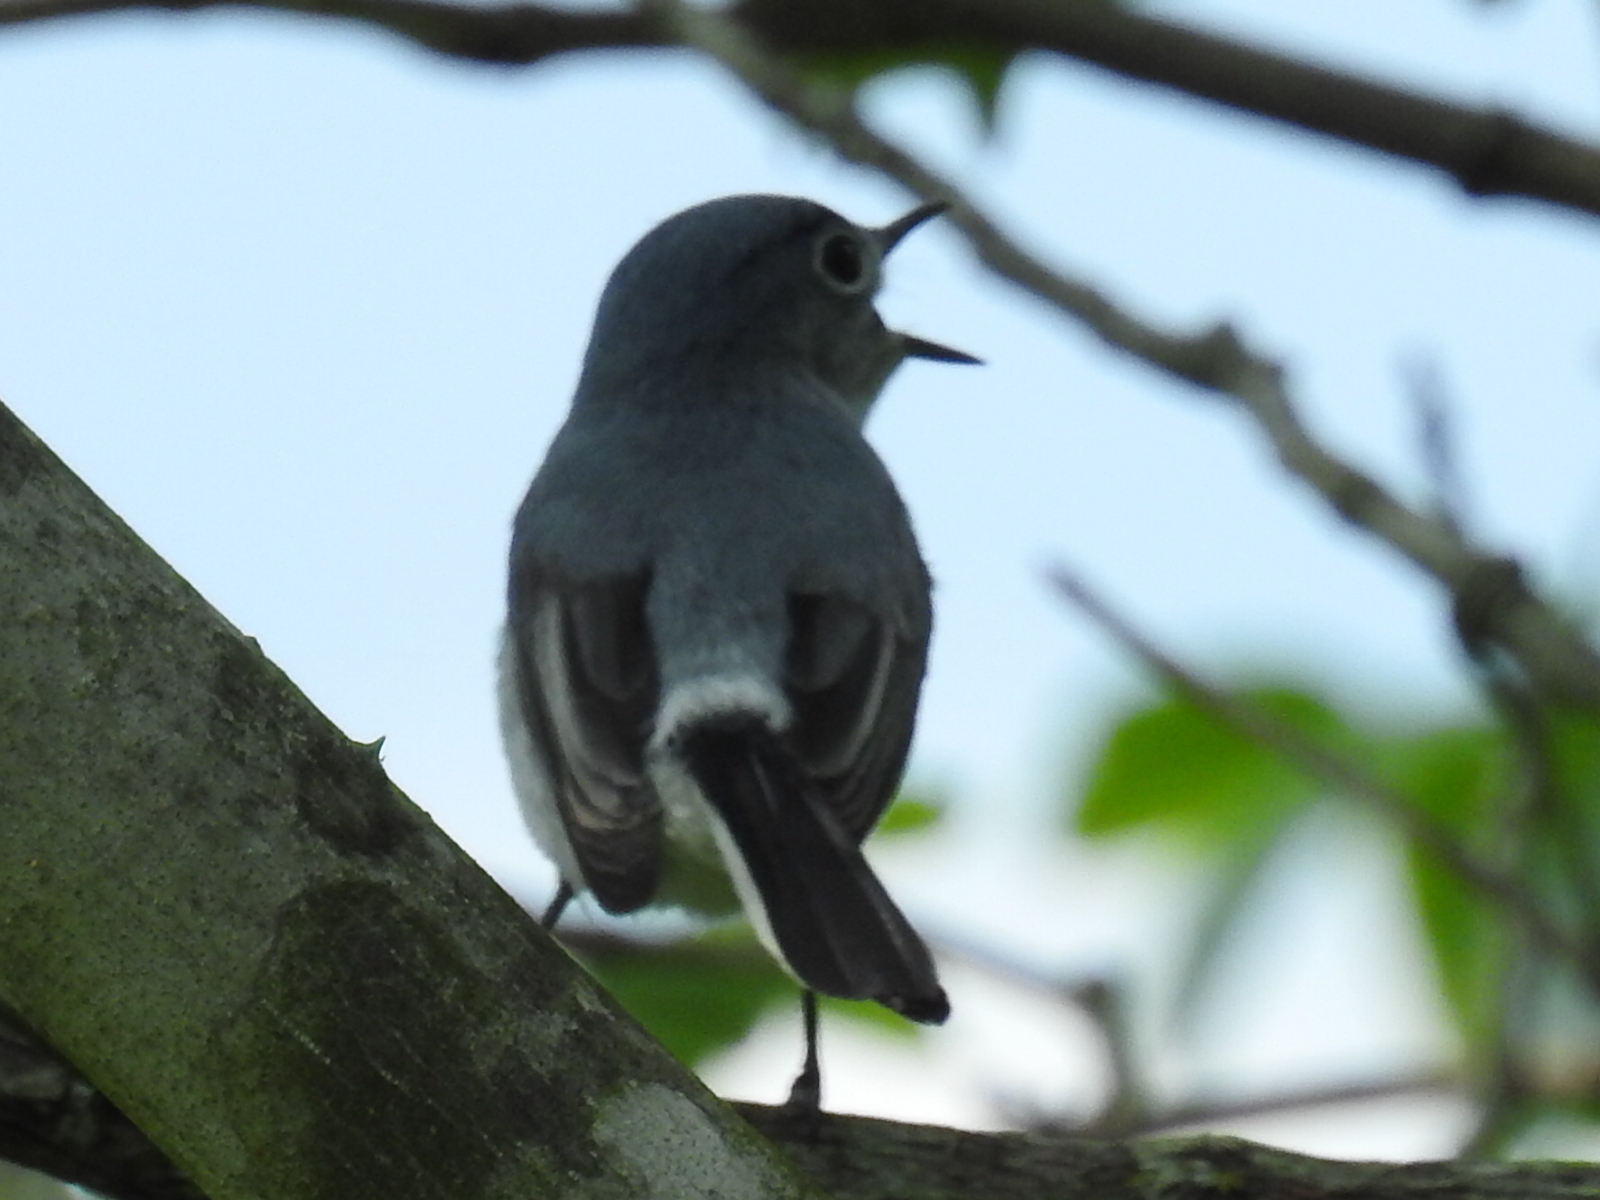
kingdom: Animalia
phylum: Chordata
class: Aves
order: Passeriformes
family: Polioptilidae
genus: Polioptila
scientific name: Polioptila caerulea
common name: Blue-gray gnatcatcher
